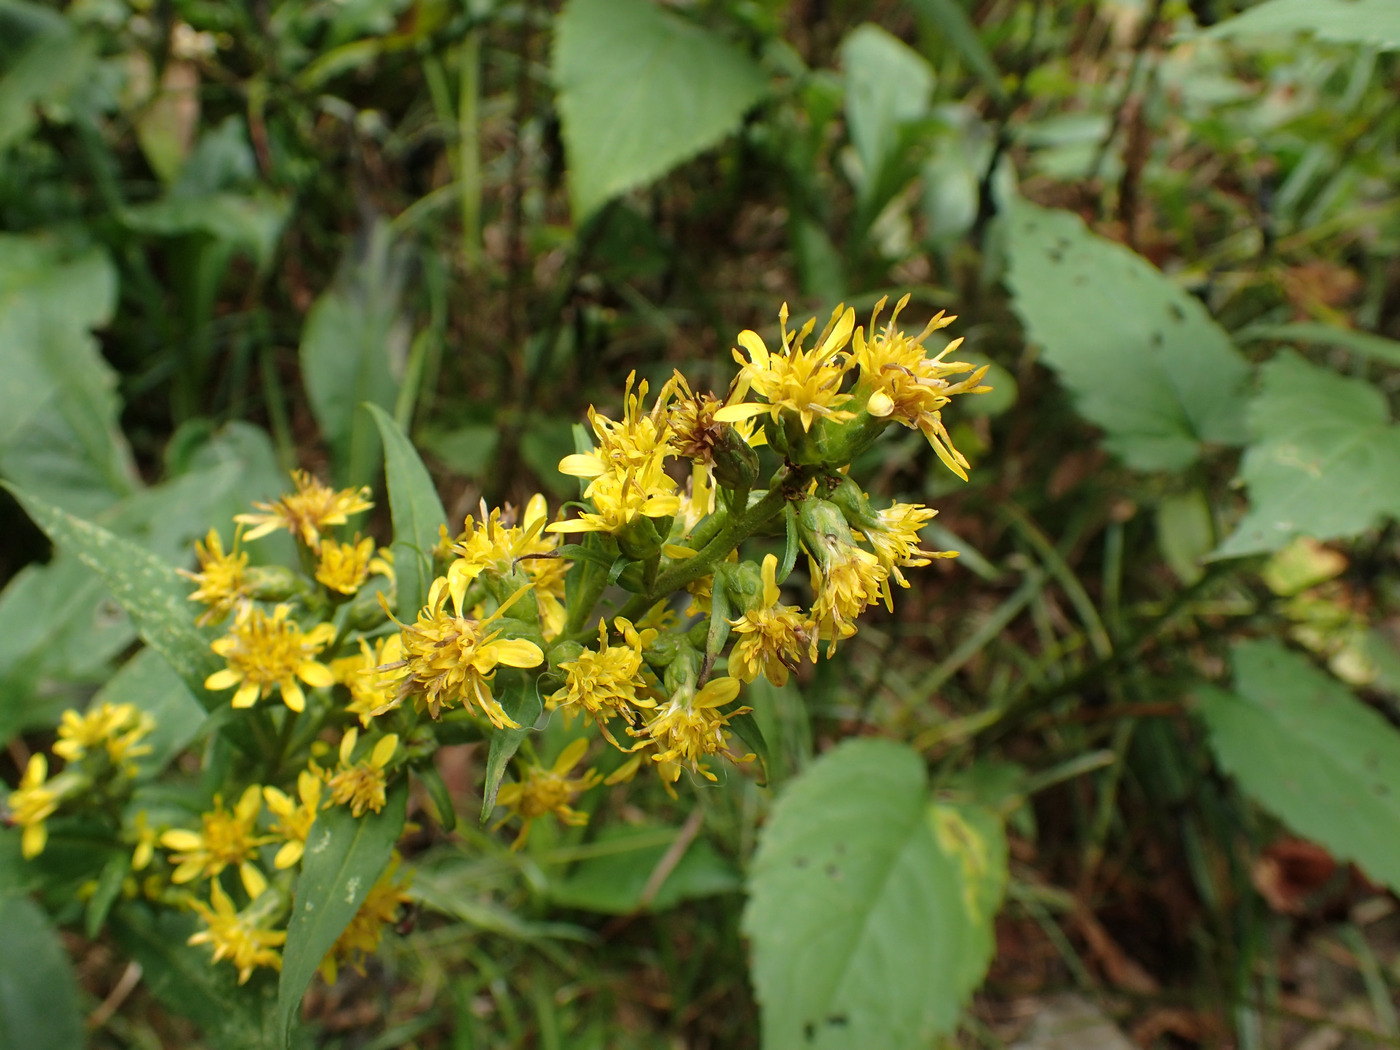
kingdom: Plantae
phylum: Tracheophyta
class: Magnoliopsida
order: Asterales
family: Asteraceae
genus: Solidago
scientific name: Solidago glomerata
